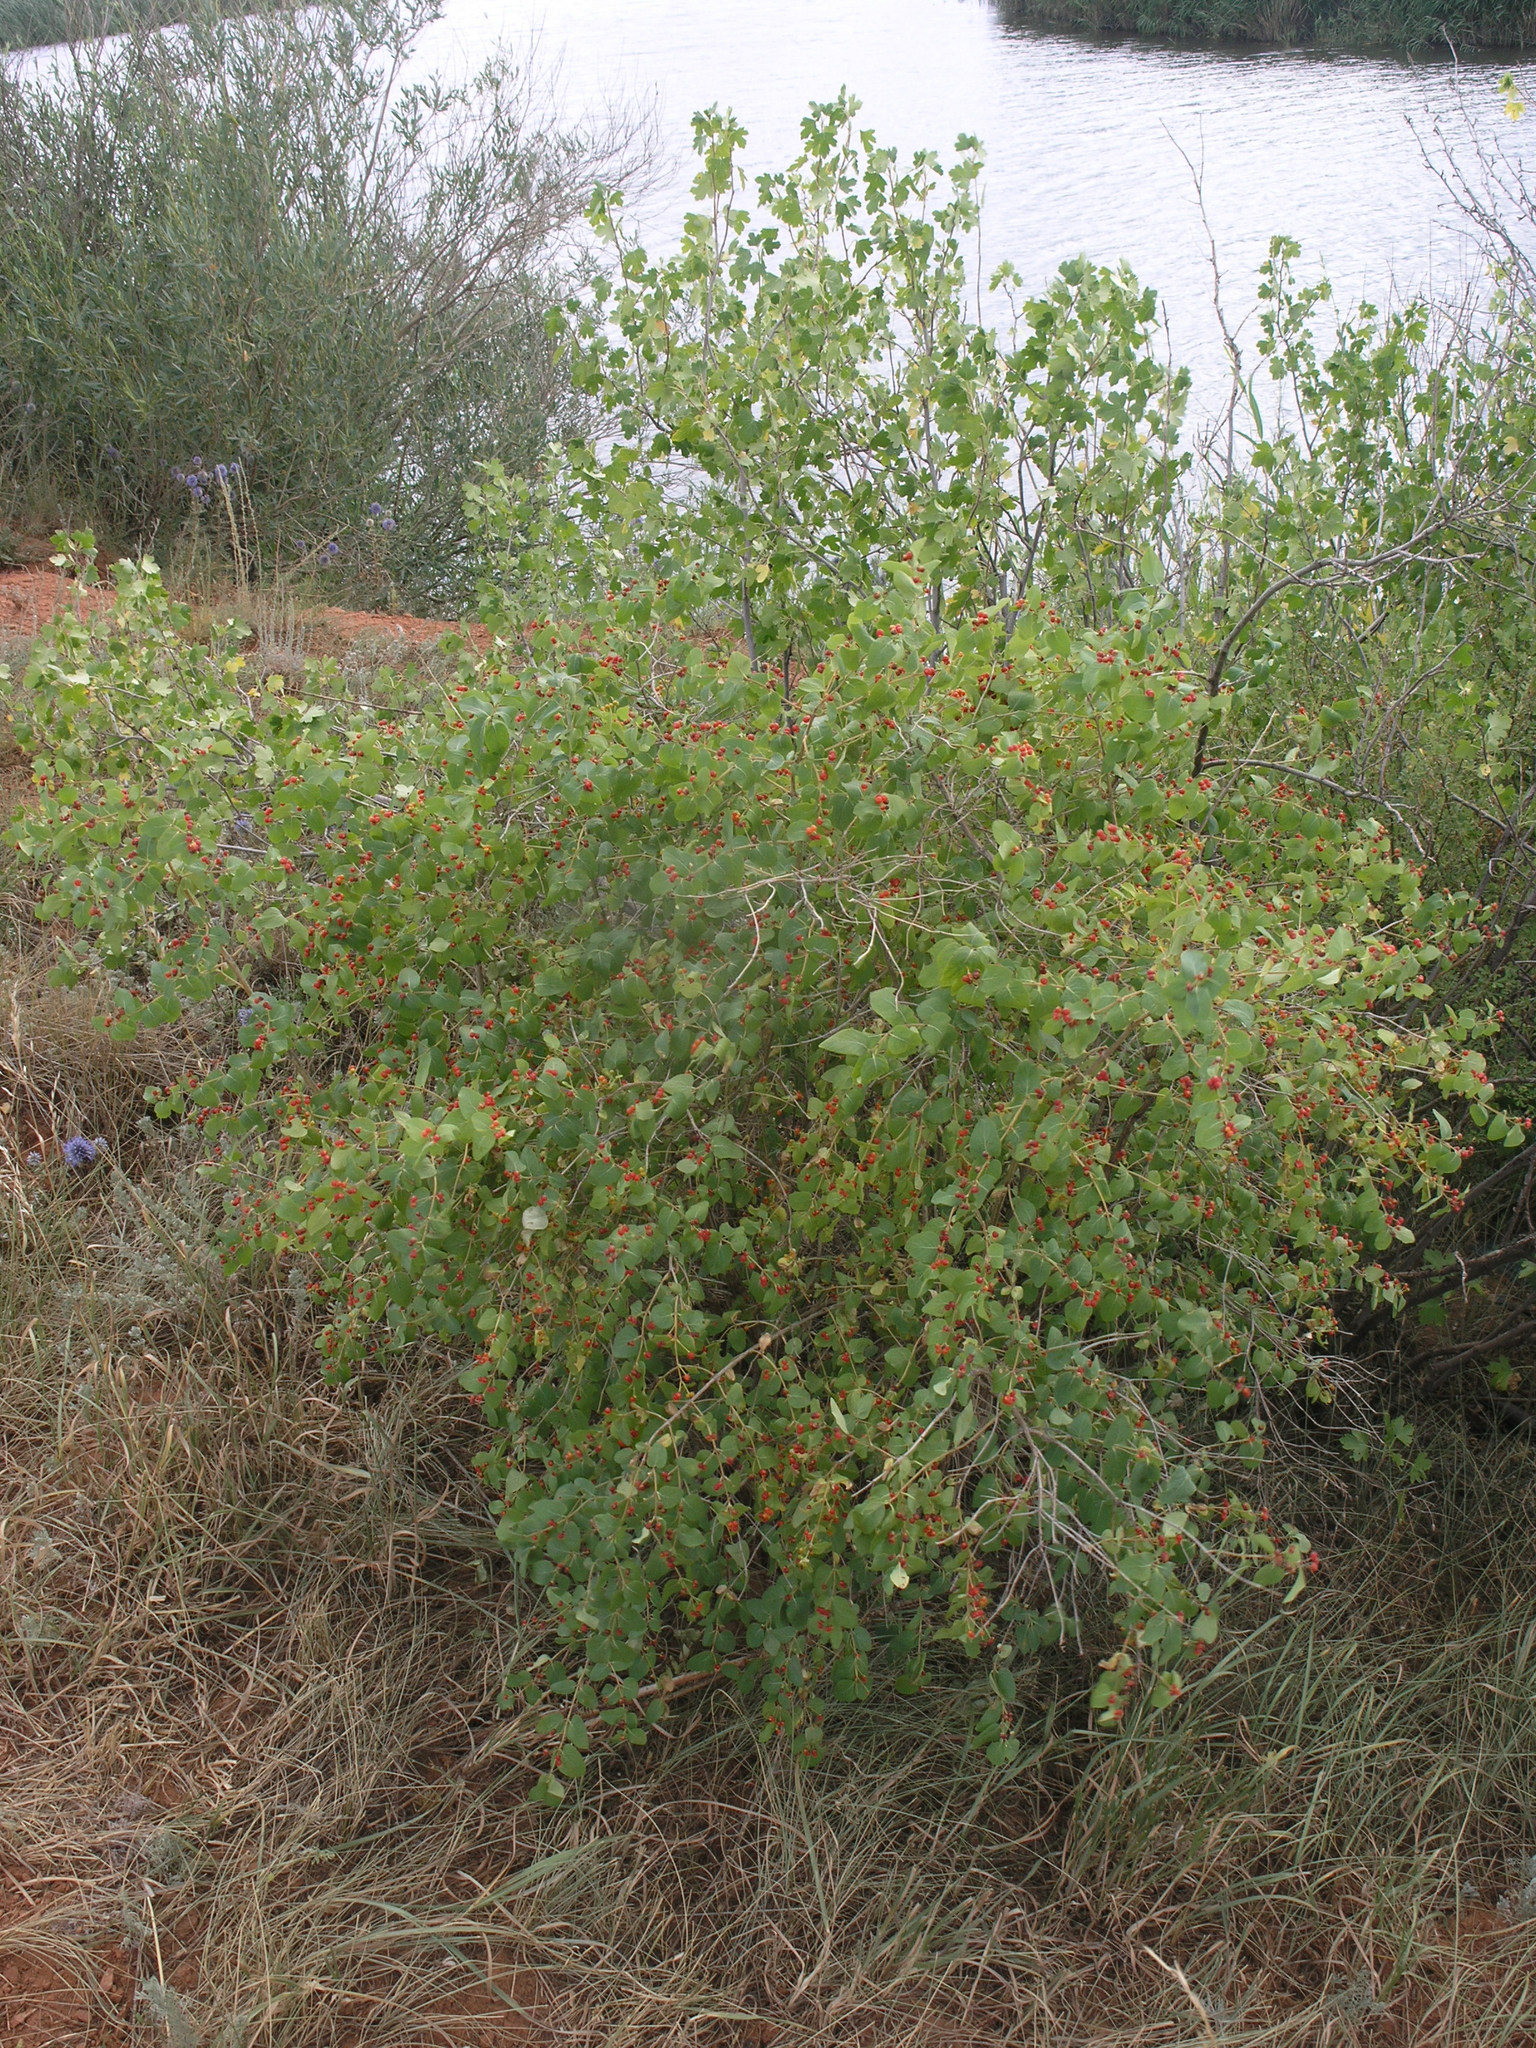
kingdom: Plantae
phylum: Tracheophyta
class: Magnoliopsida
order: Dipsacales
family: Caprifoliaceae
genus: Lonicera
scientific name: Lonicera tatarica
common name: Tatarian honeysuckle
